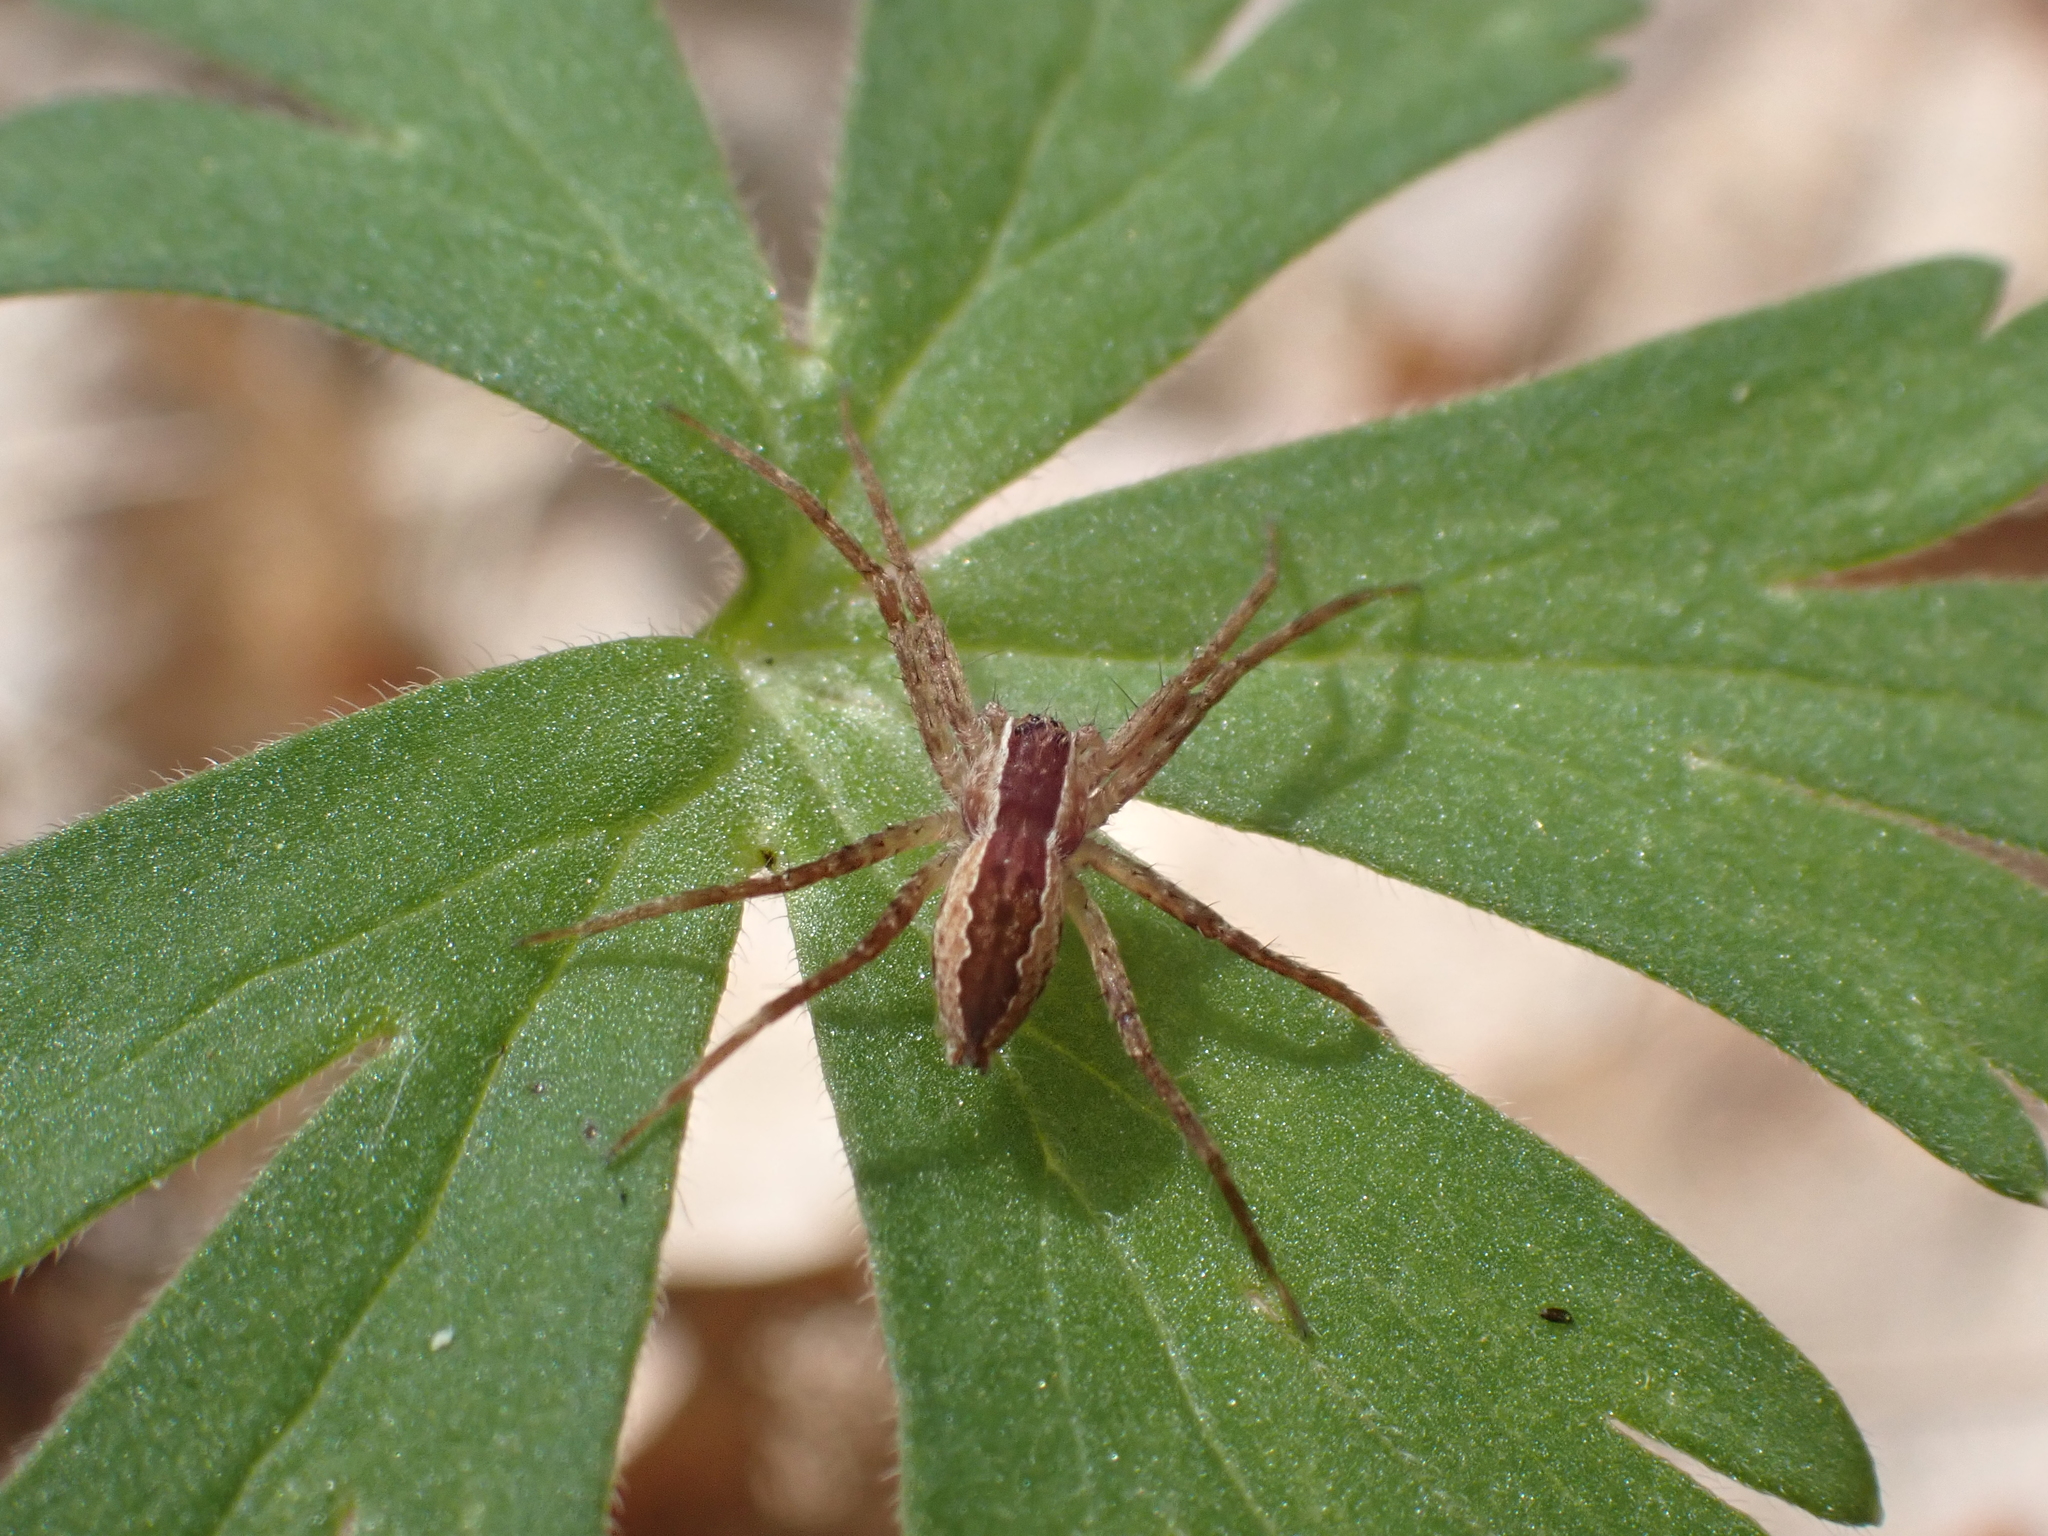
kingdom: Animalia
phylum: Arthropoda
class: Arachnida
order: Araneae
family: Pisauridae
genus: Pisaurina
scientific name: Pisaurina mira
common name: American nursery web spider
